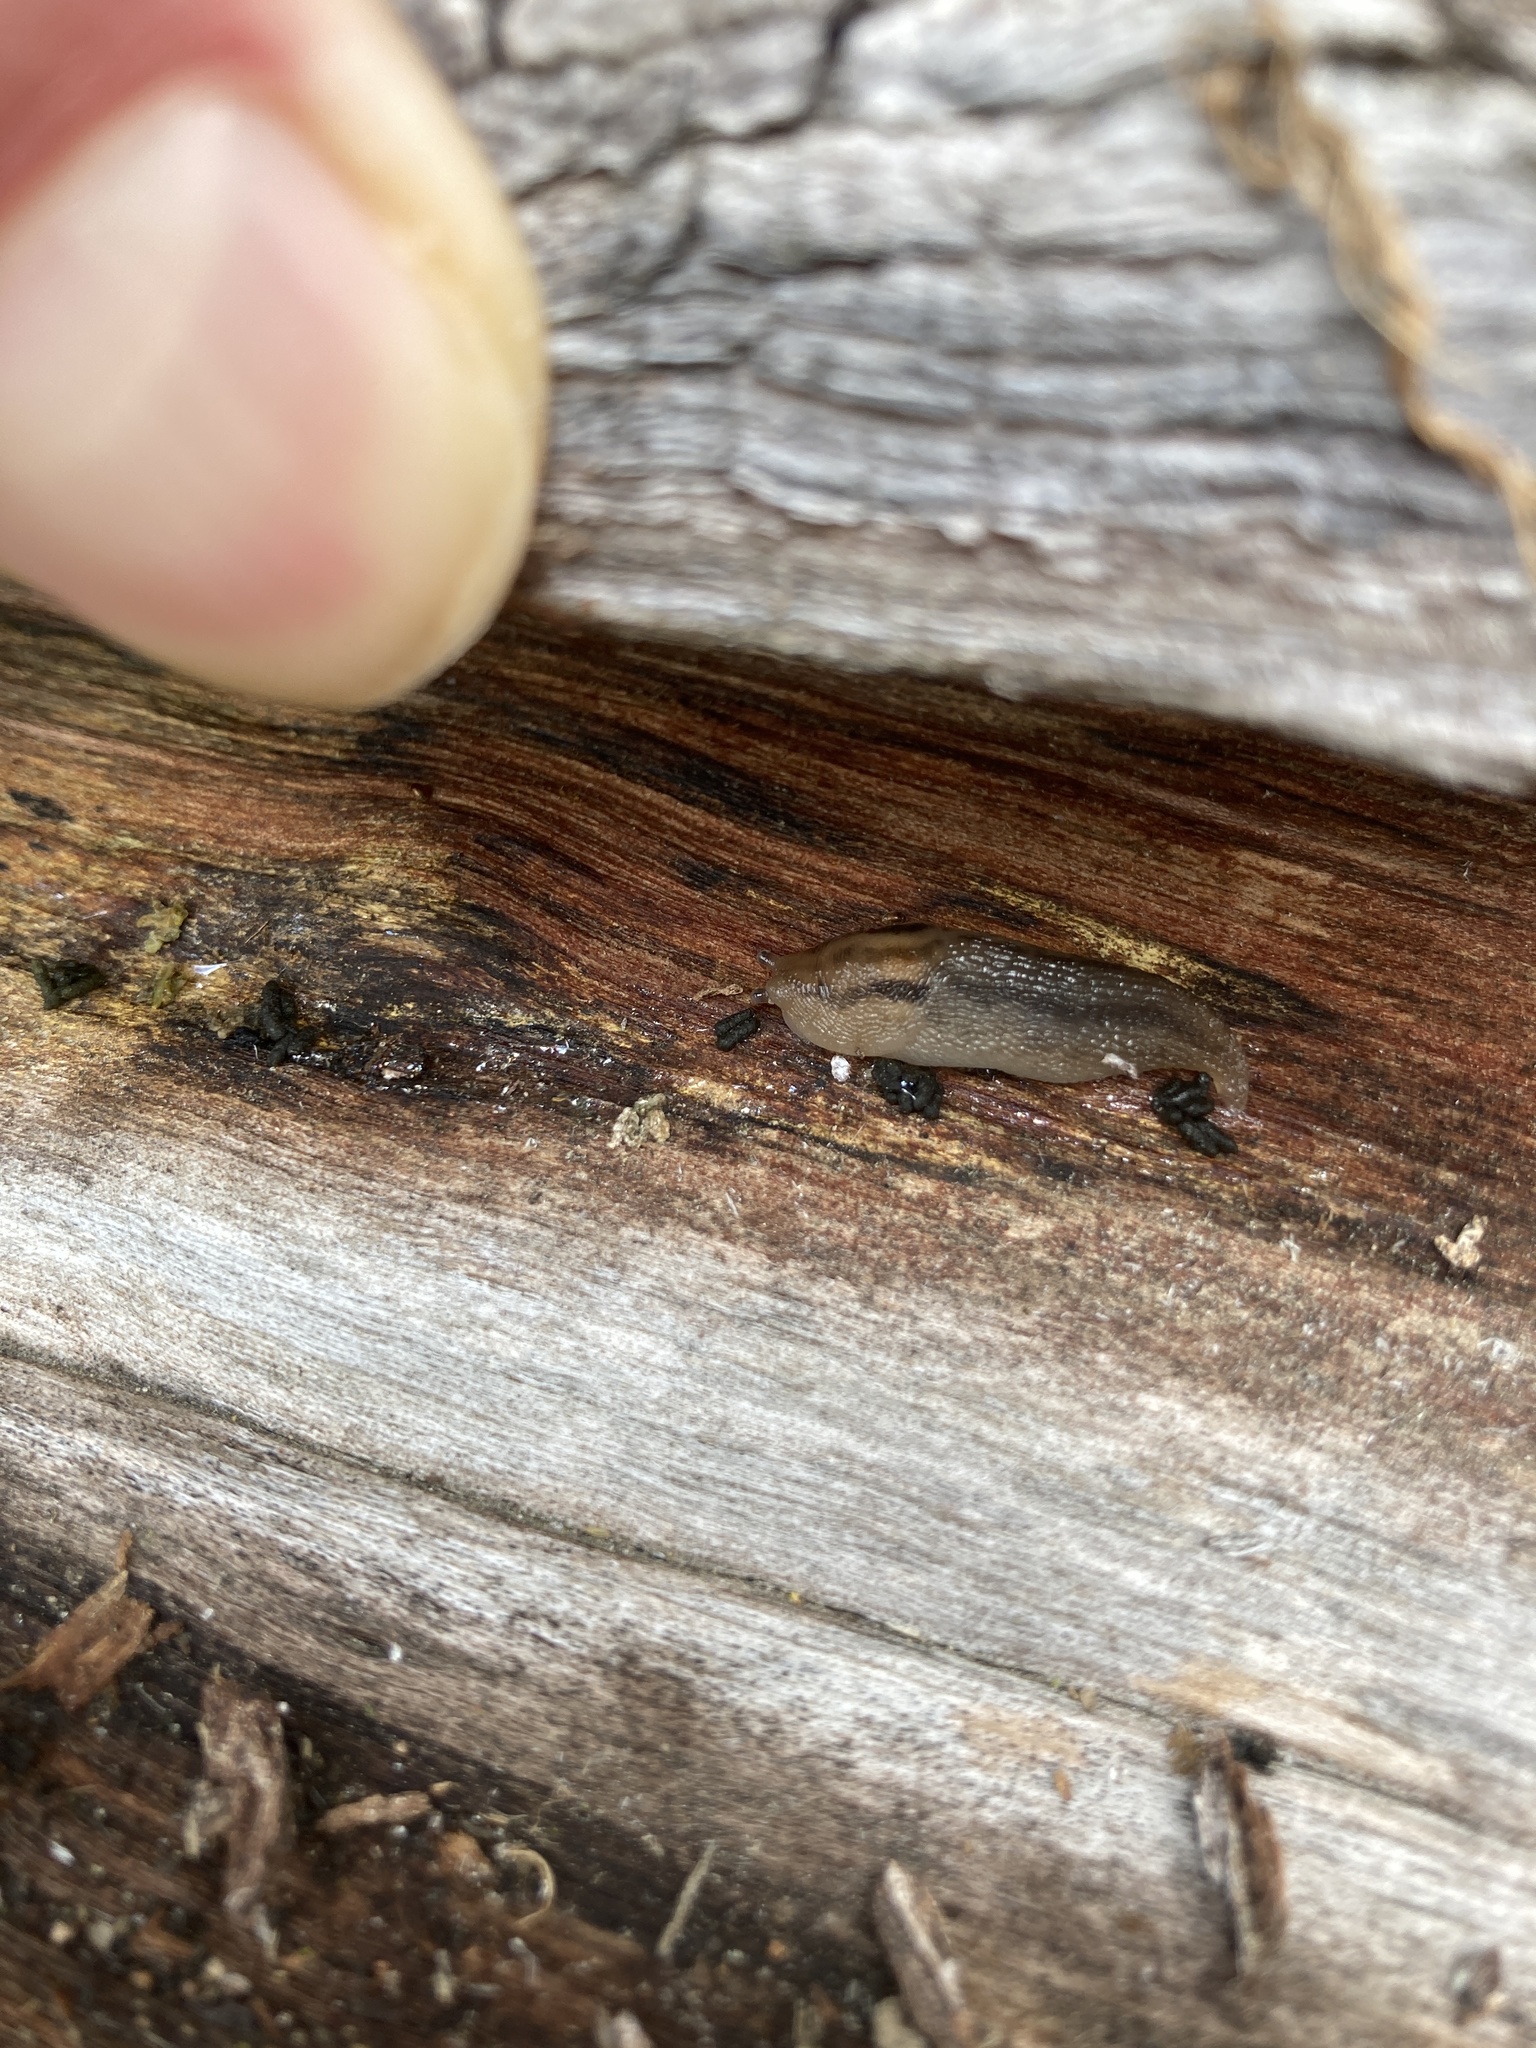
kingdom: Animalia
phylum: Mollusca
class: Gastropoda
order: Stylommatophora
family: Limacidae
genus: Ambigolimax
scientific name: Ambigolimax
